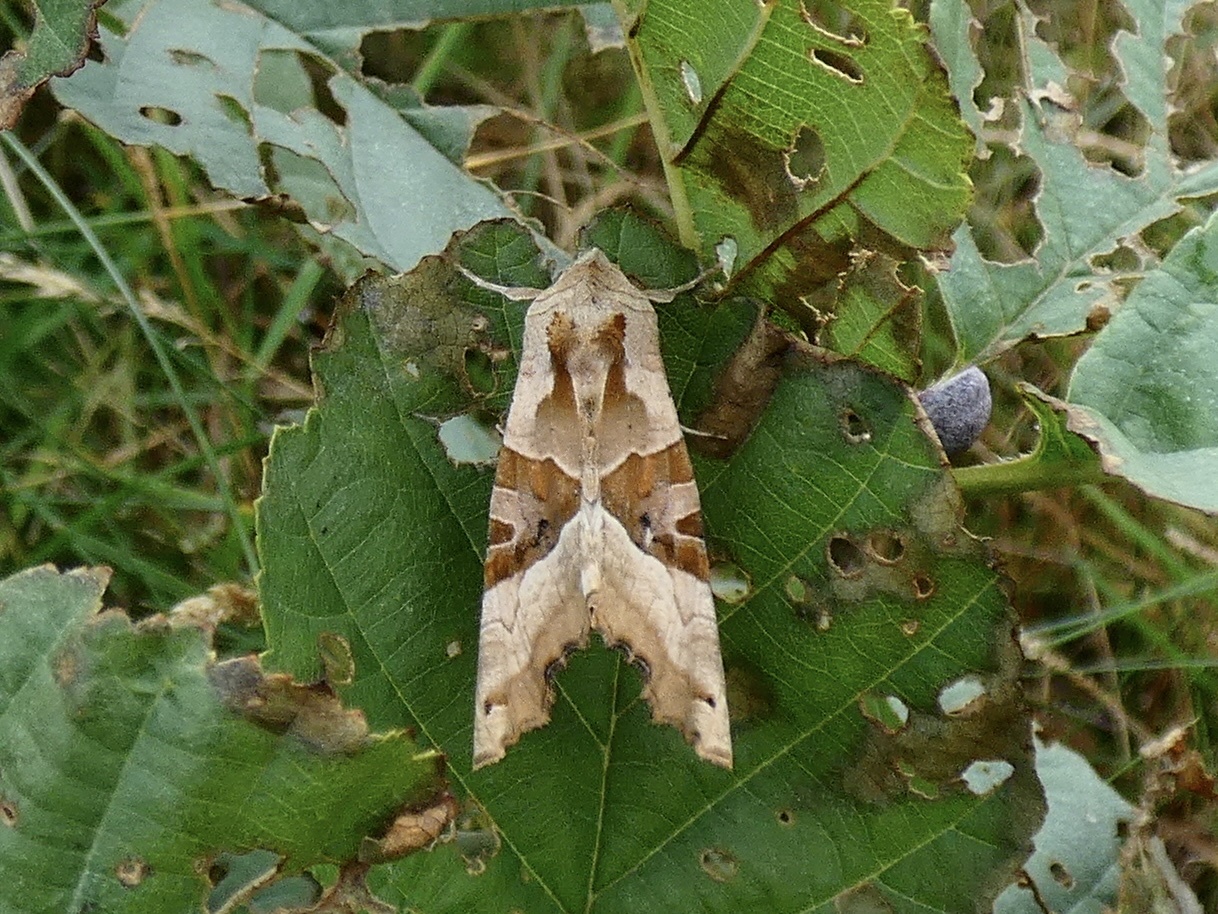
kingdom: Animalia
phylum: Arthropoda
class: Insecta
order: Lepidoptera
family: Noctuidae
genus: Phlogophora
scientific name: Phlogophora meticulosa
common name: Angle shades
